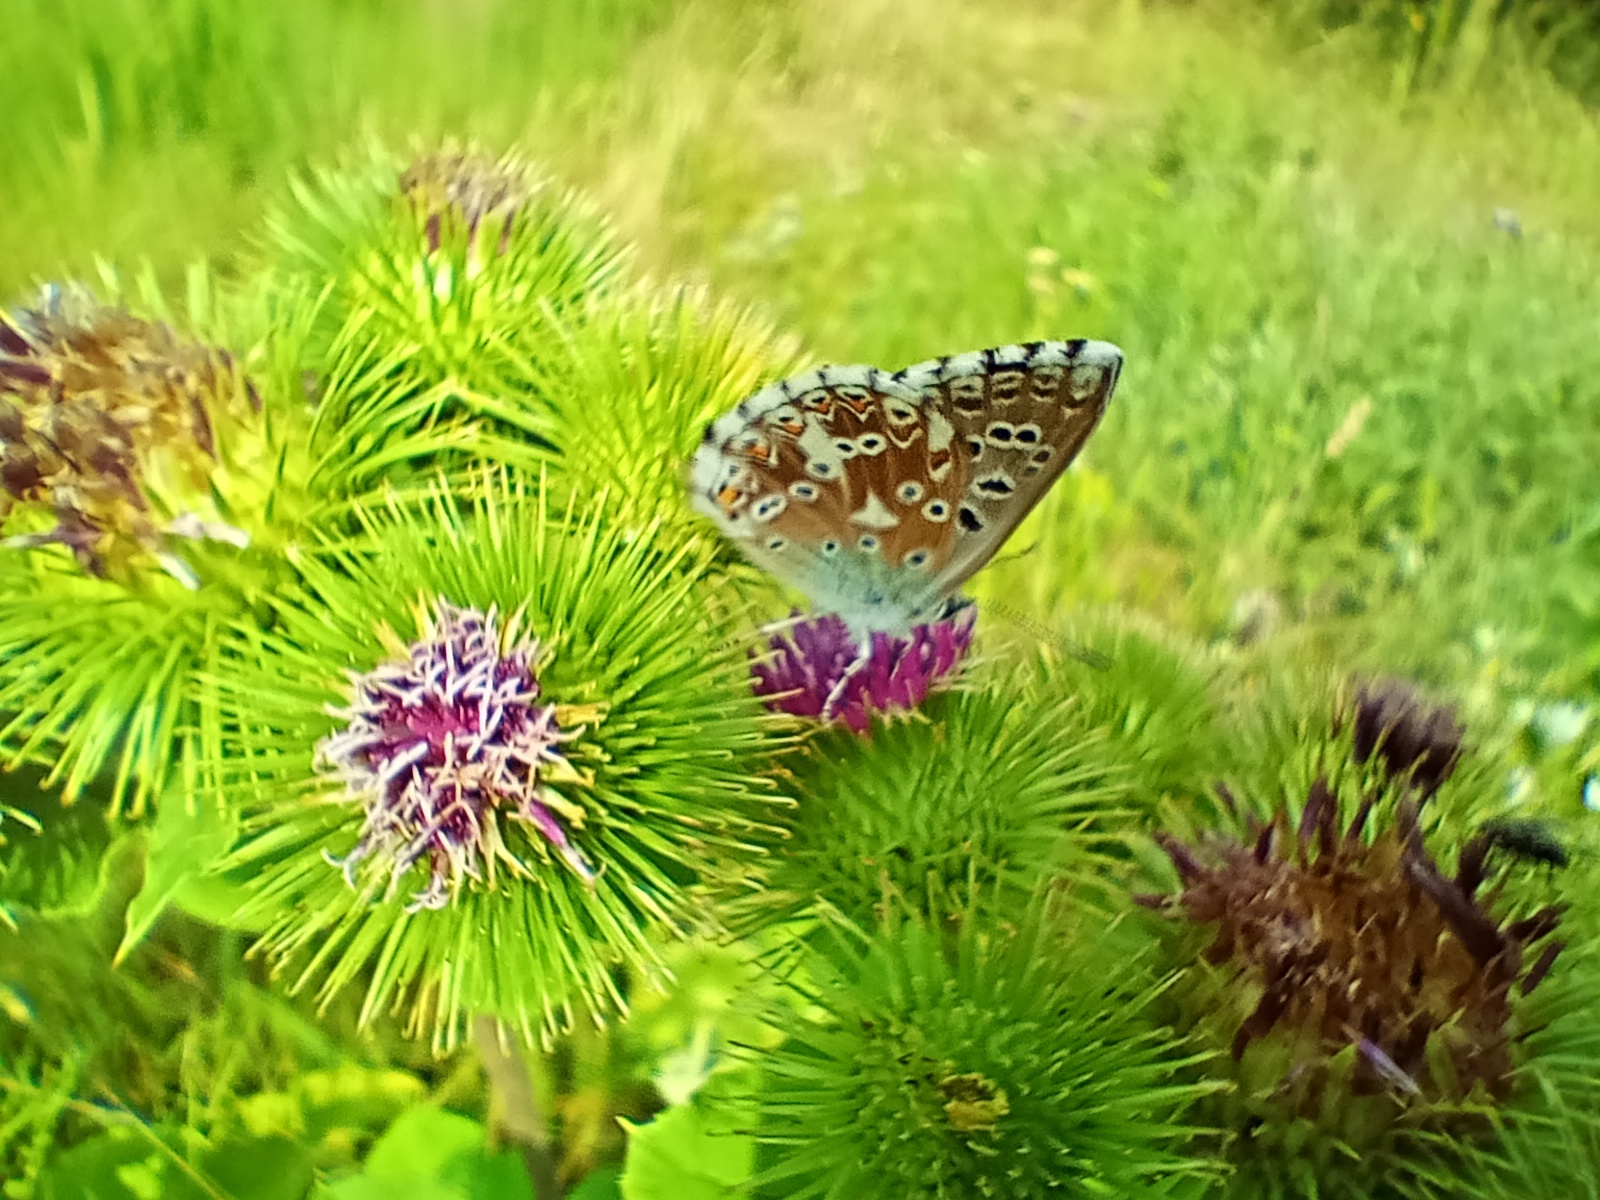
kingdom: Animalia
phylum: Arthropoda
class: Insecta
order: Lepidoptera
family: Lycaenidae
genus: Lysandra
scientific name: Lysandra coridon
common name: Chalkhill blue
